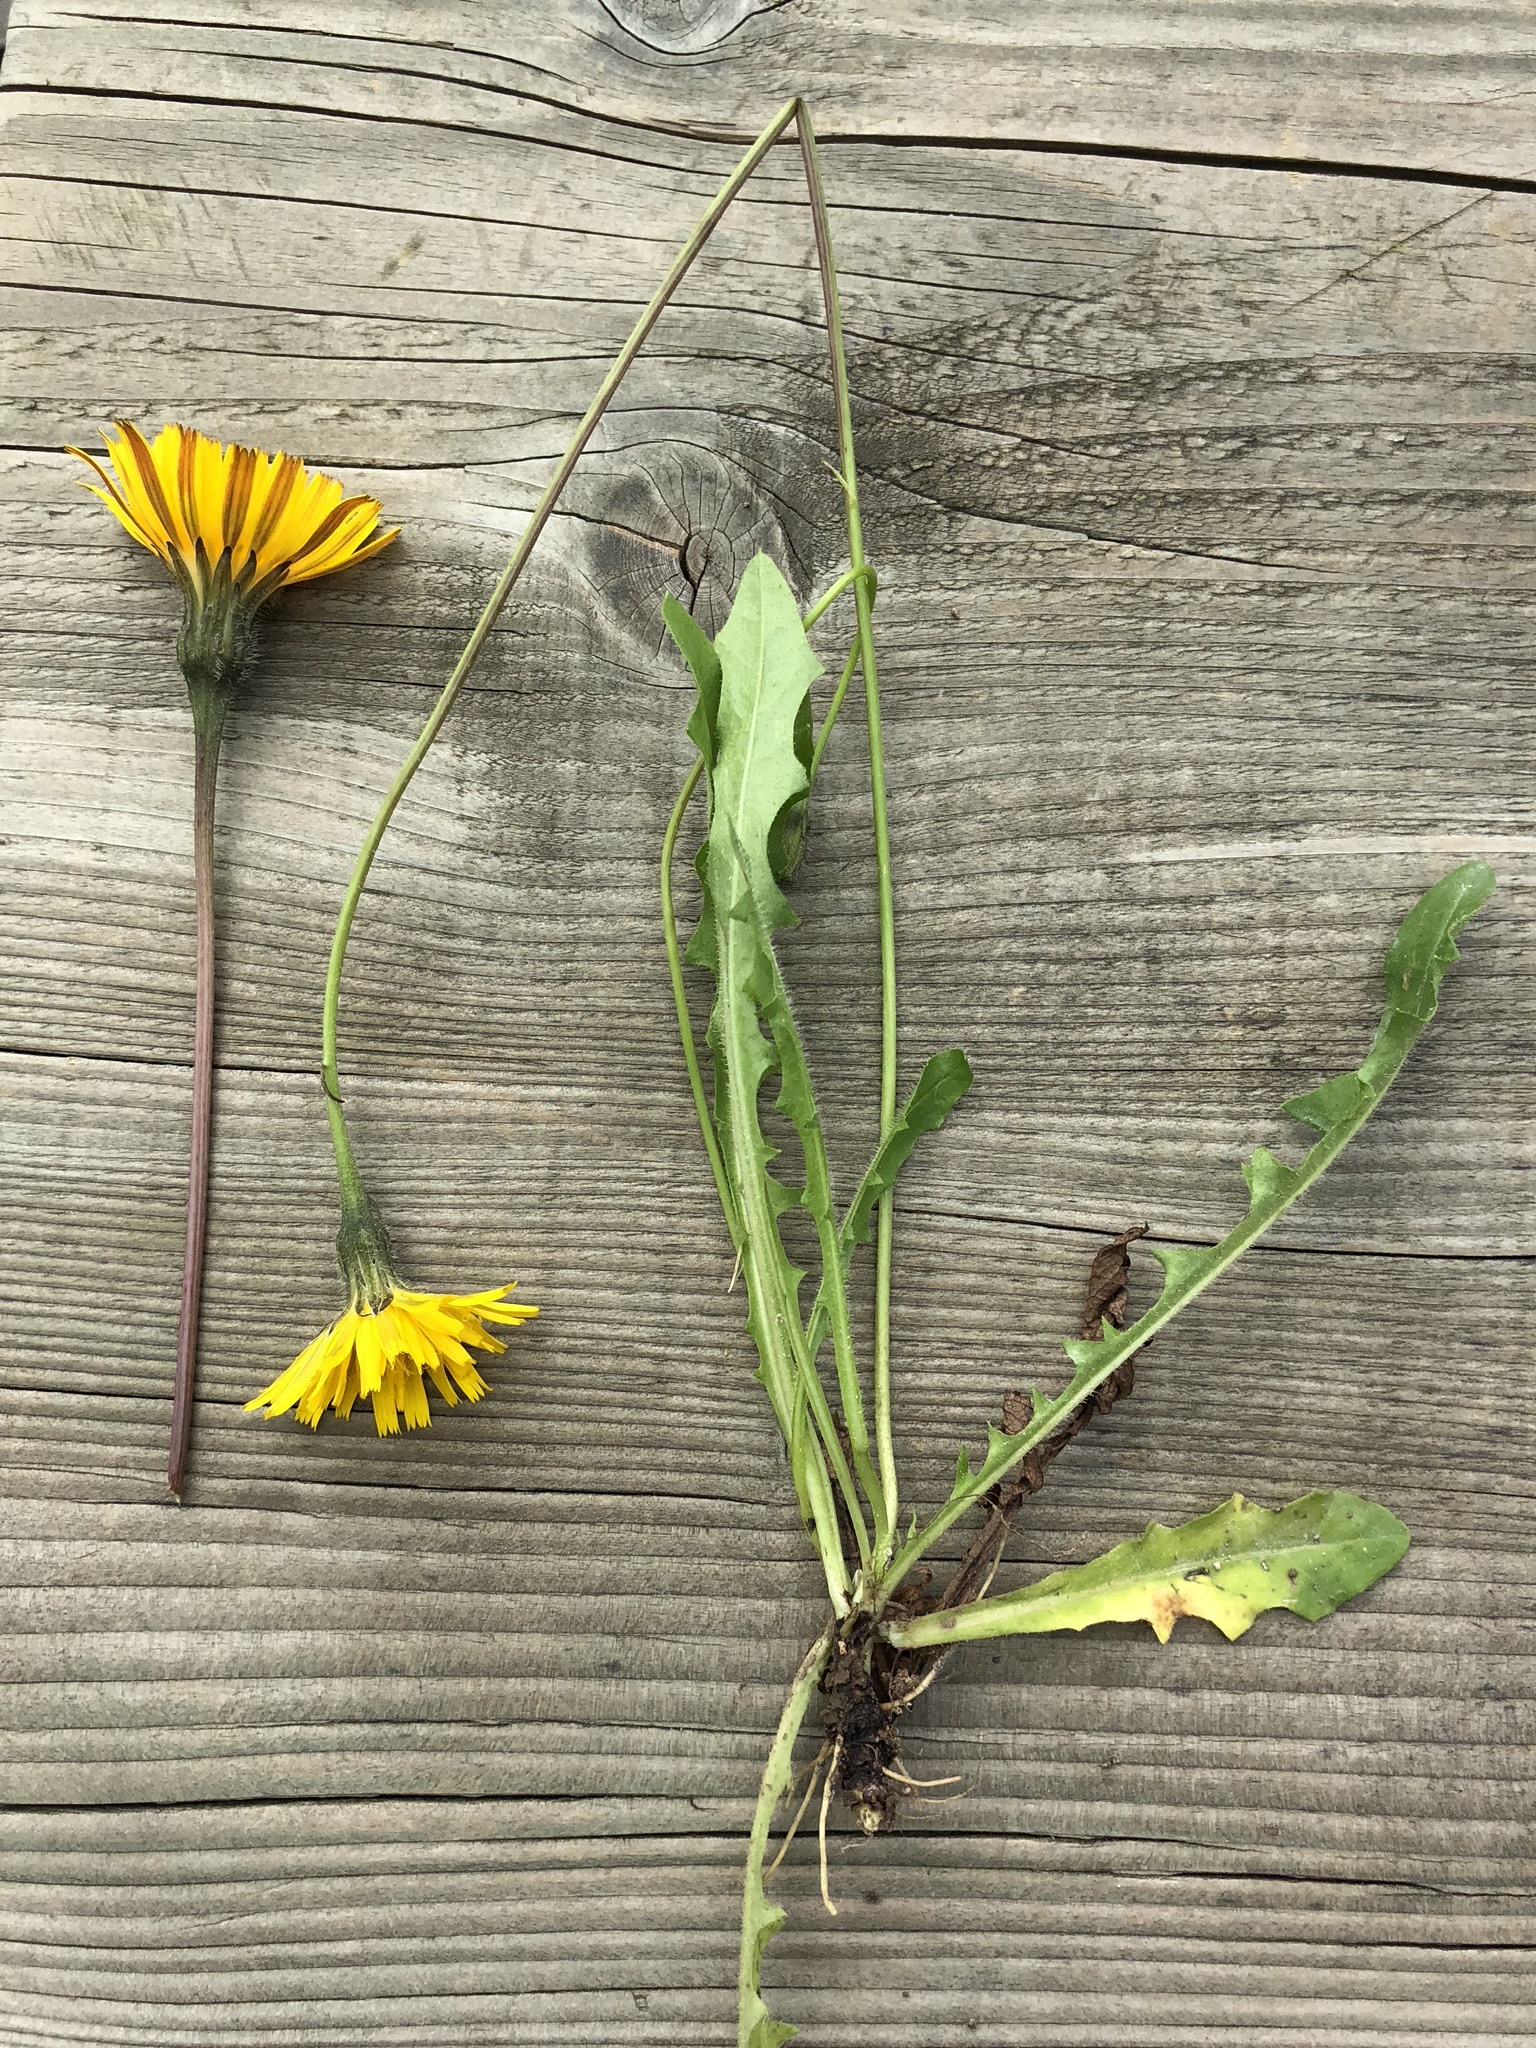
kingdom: Plantae
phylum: Tracheophyta
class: Magnoliopsida
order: Asterales
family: Asteraceae
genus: Leontodon
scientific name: Leontodon hispidus
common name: Rough hawkbit
